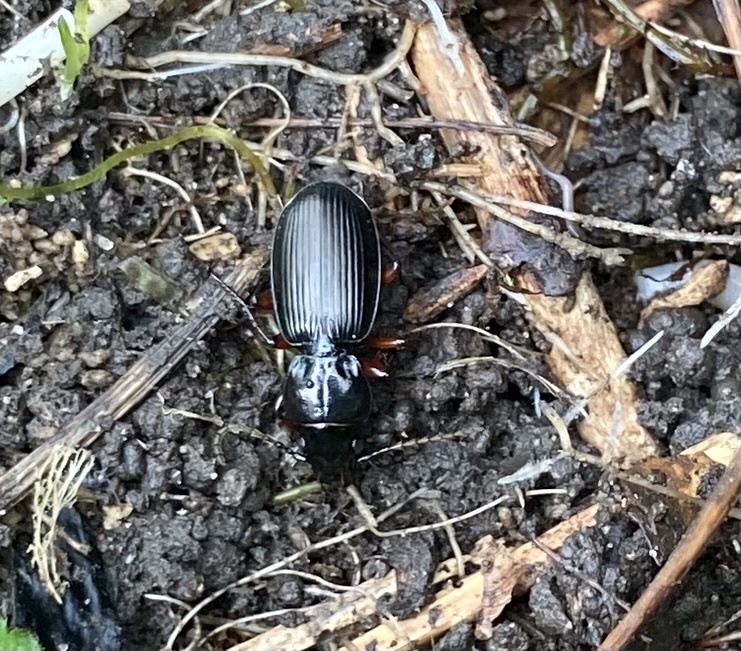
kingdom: Animalia
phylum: Arthropoda
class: Insecta
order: Coleoptera
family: Carabidae
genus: Pterostichus
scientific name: Pterostichus madidus
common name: Black clock
